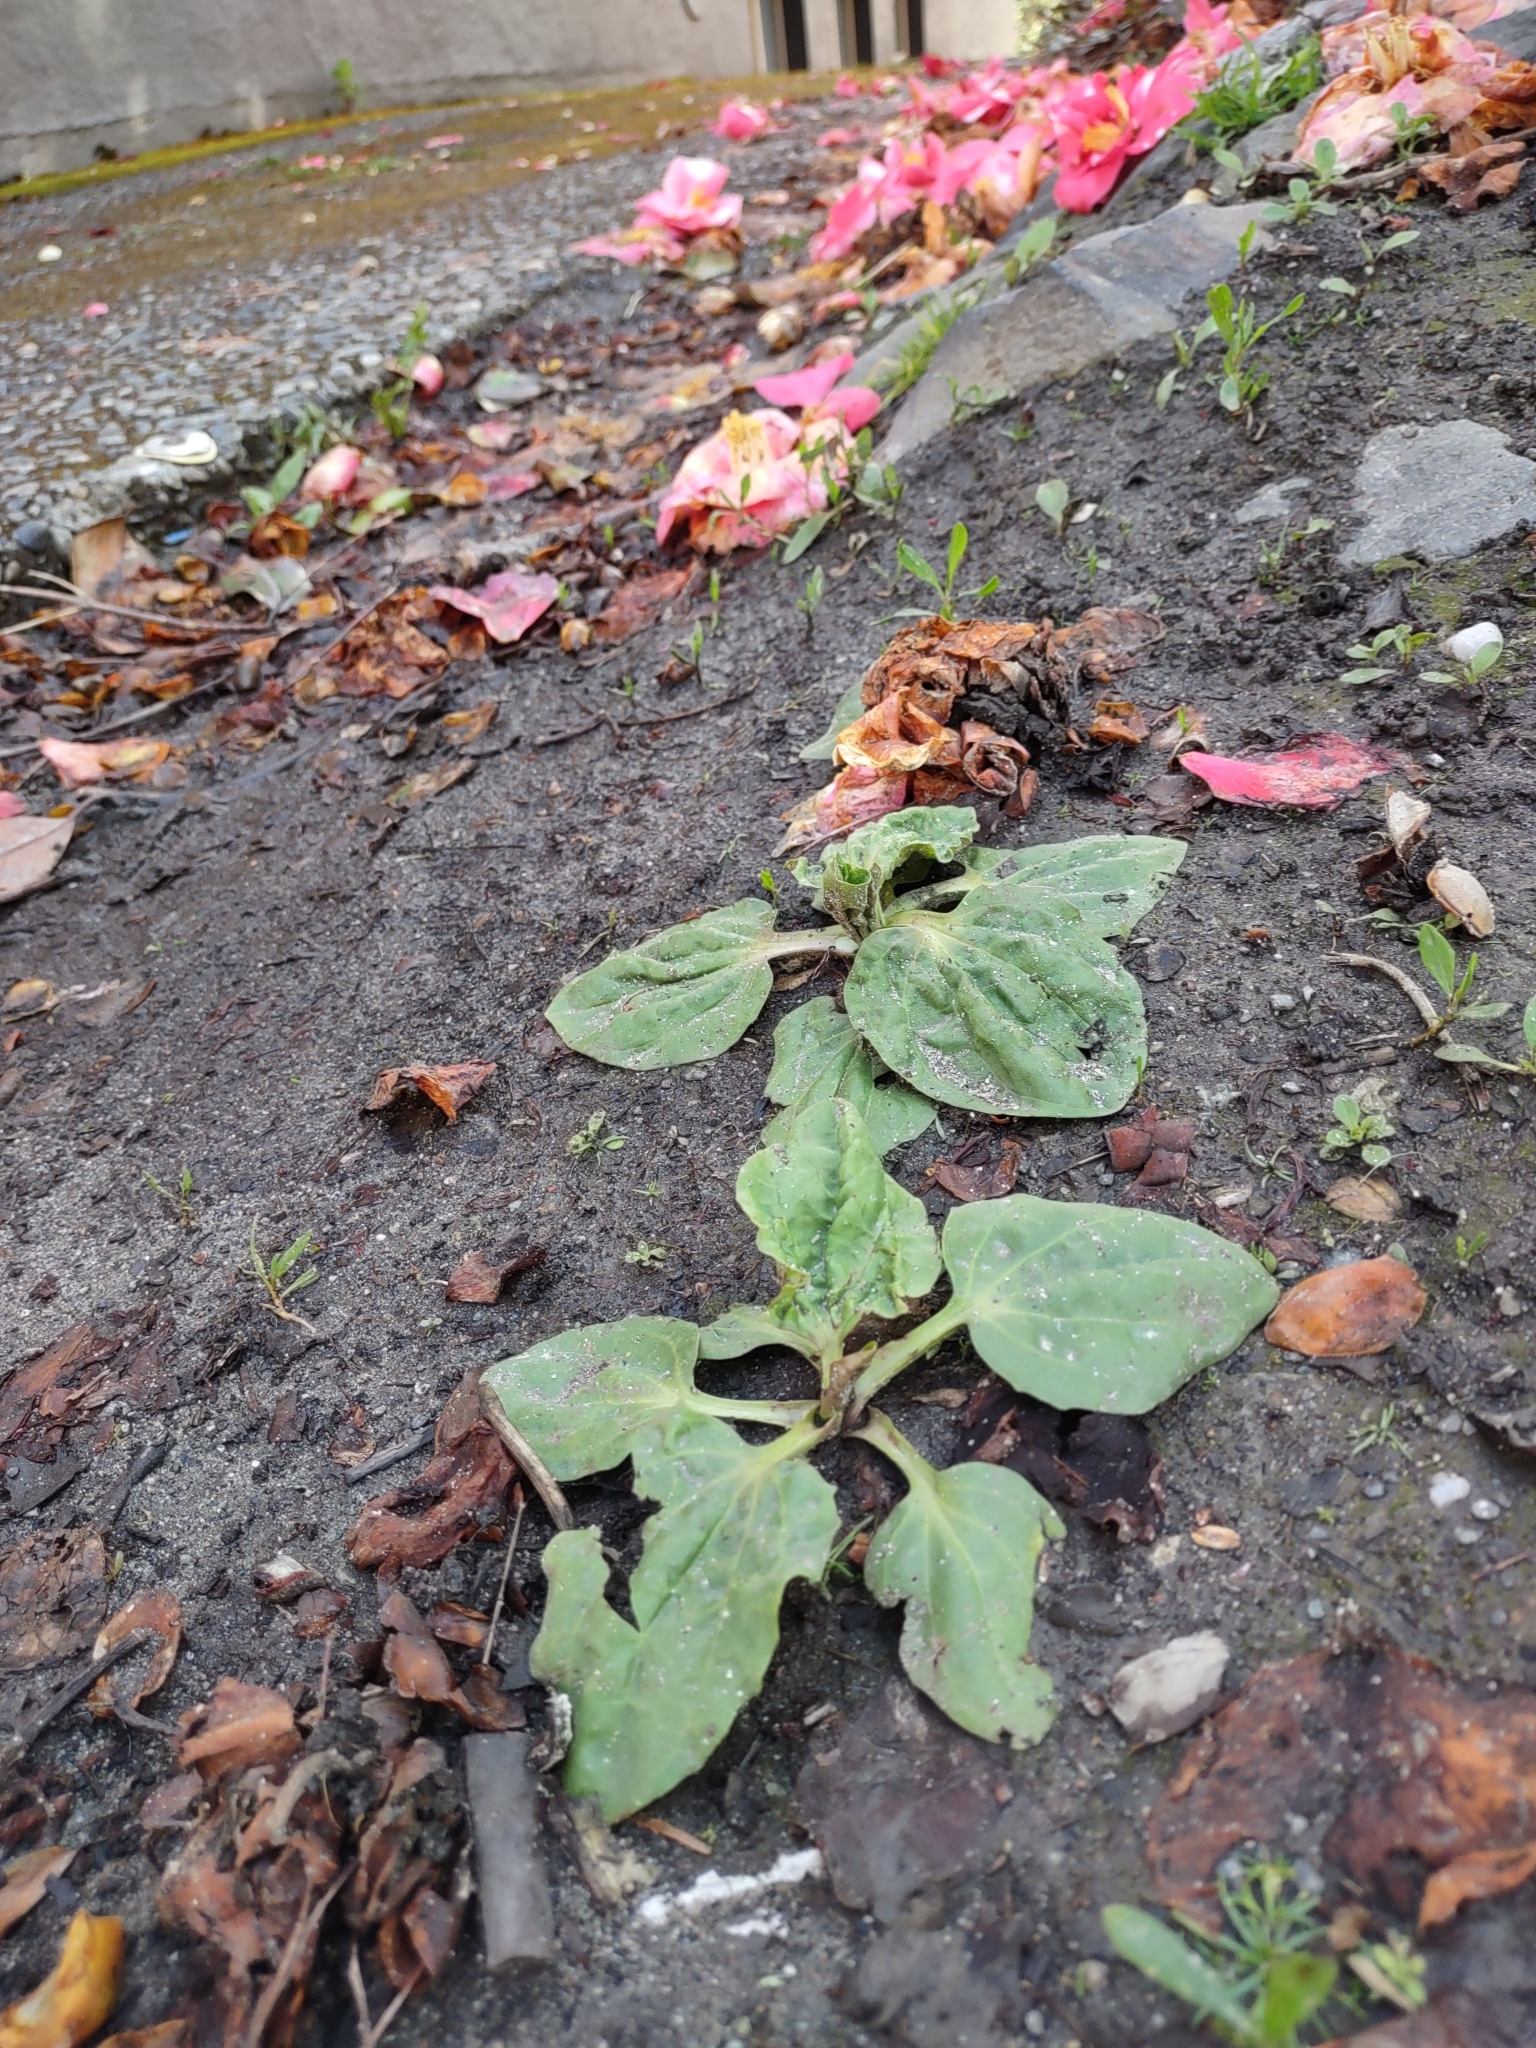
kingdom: Plantae
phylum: Tracheophyta
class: Magnoliopsida
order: Lamiales
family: Plantaginaceae
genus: Plantago
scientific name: Plantago major
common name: Common plantain
